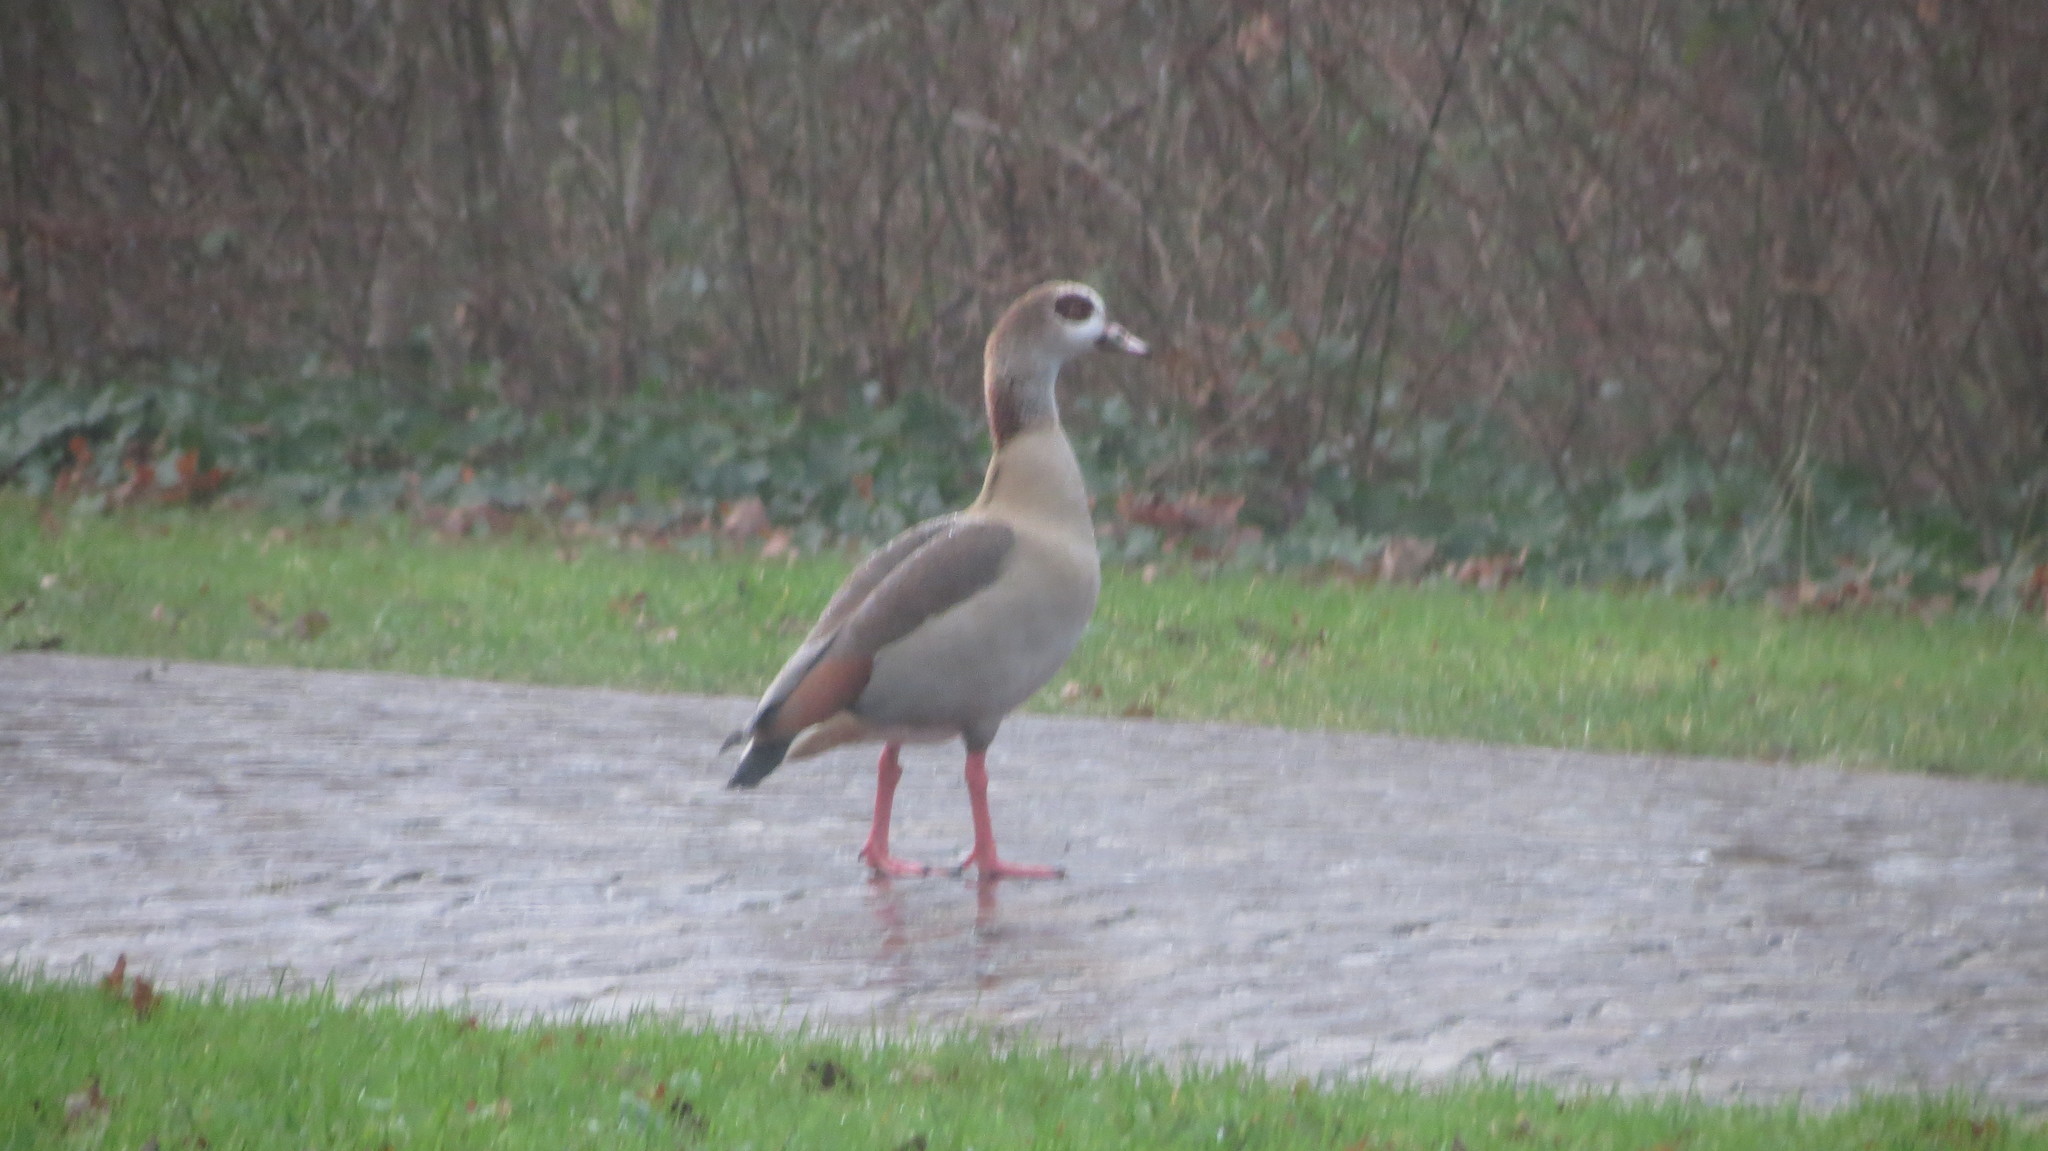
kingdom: Animalia
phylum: Chordata
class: Aves
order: Anseriformes
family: Anatidae
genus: Alopochen
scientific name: Alopochen aegyptiaca
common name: Egyptian goose
